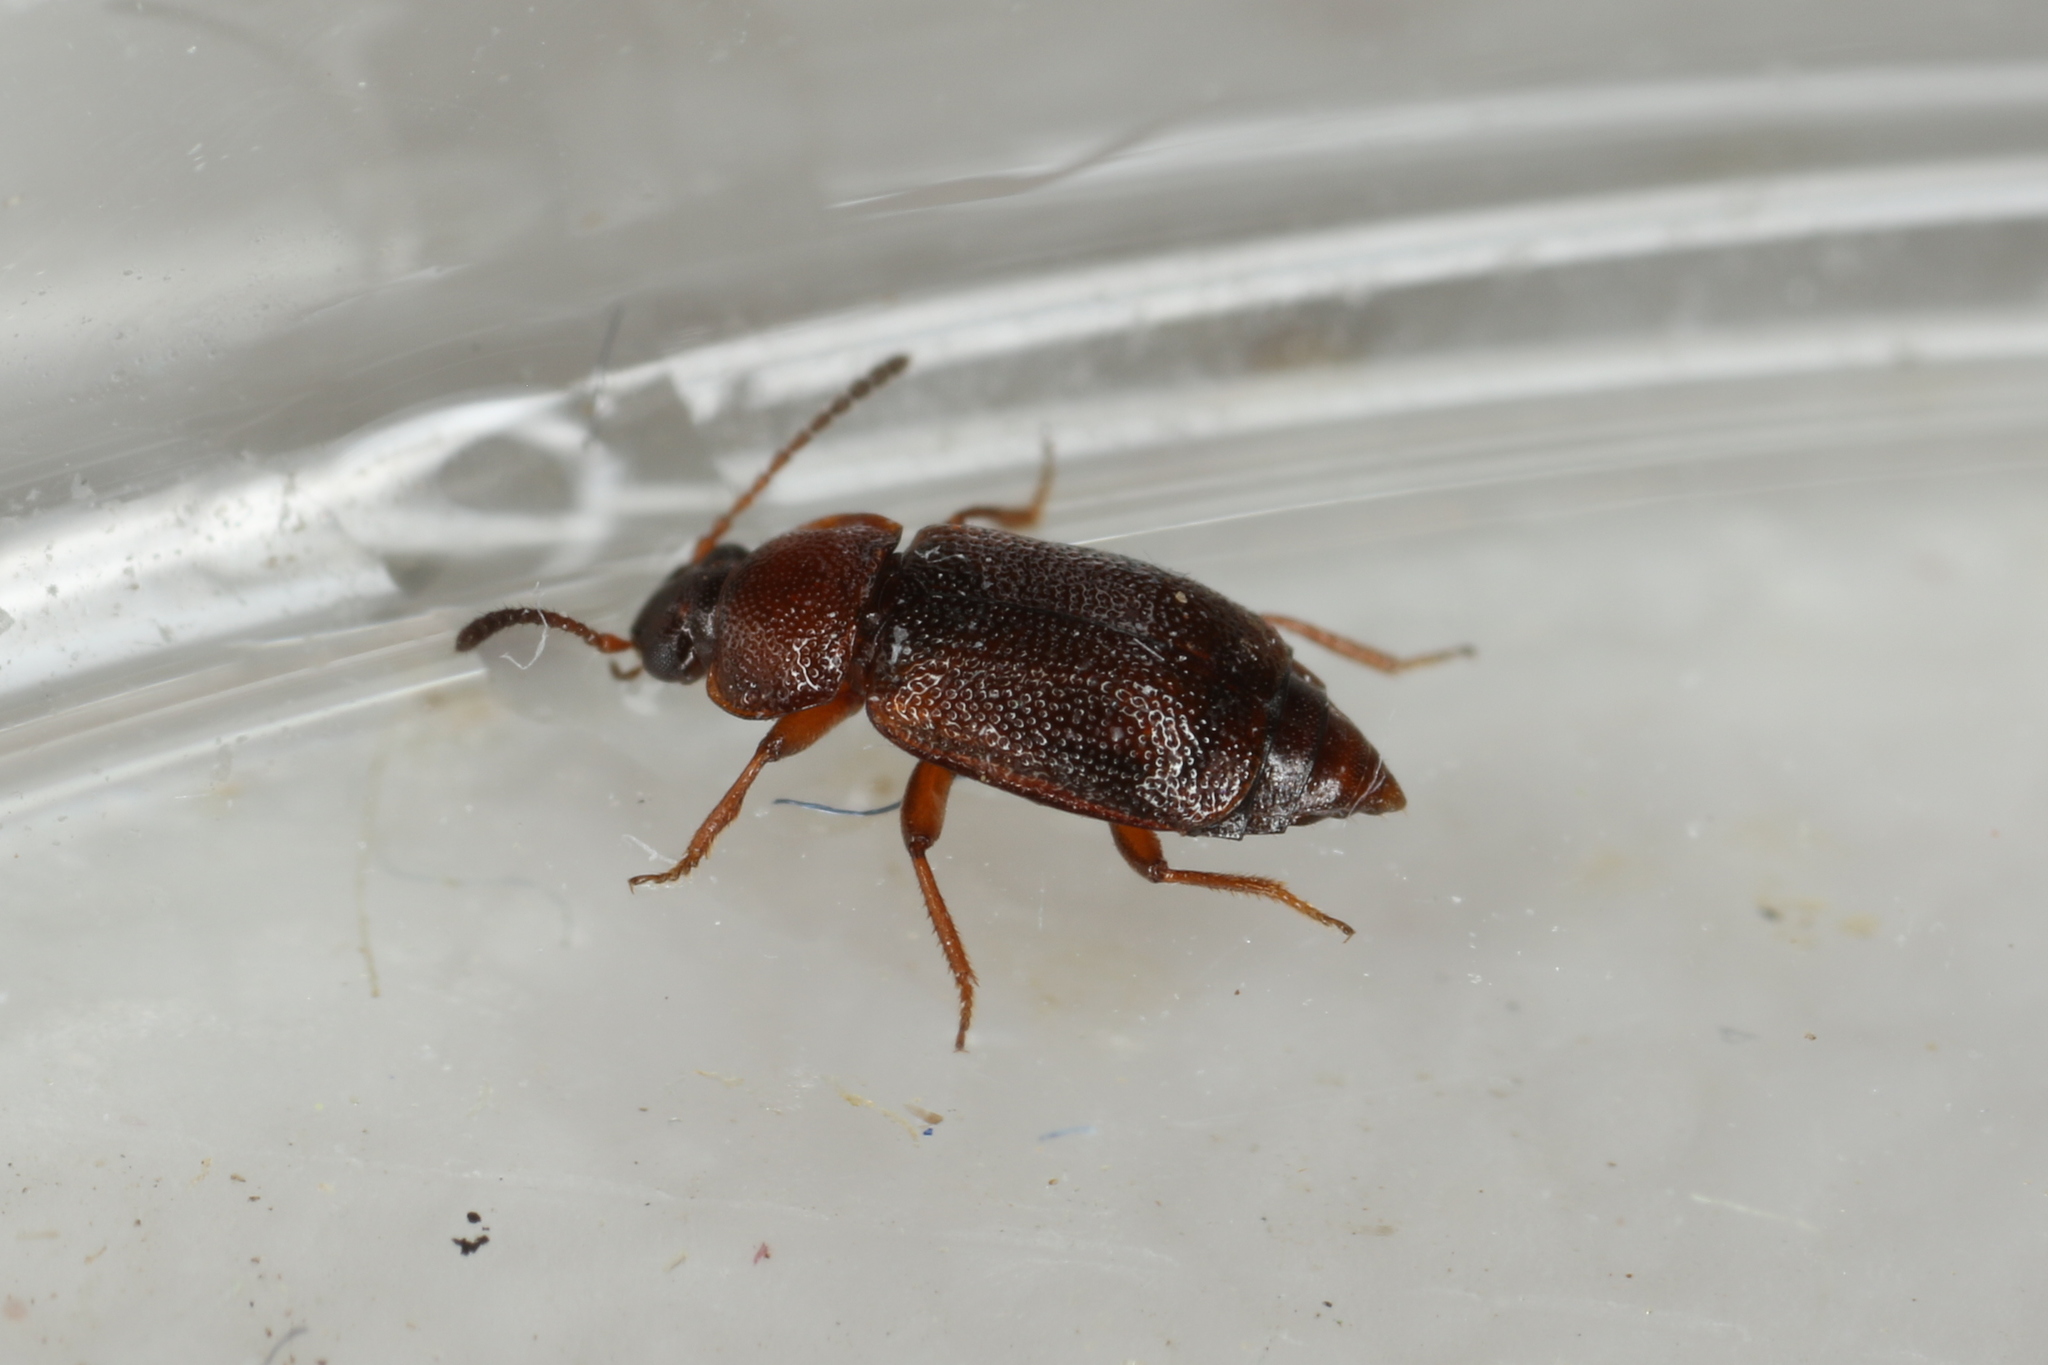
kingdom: Animalia
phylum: Arthropoda
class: Insecta
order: Coleoptera
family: Staphylinidae
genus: Anthobium
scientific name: Anthobium atrocephalum
